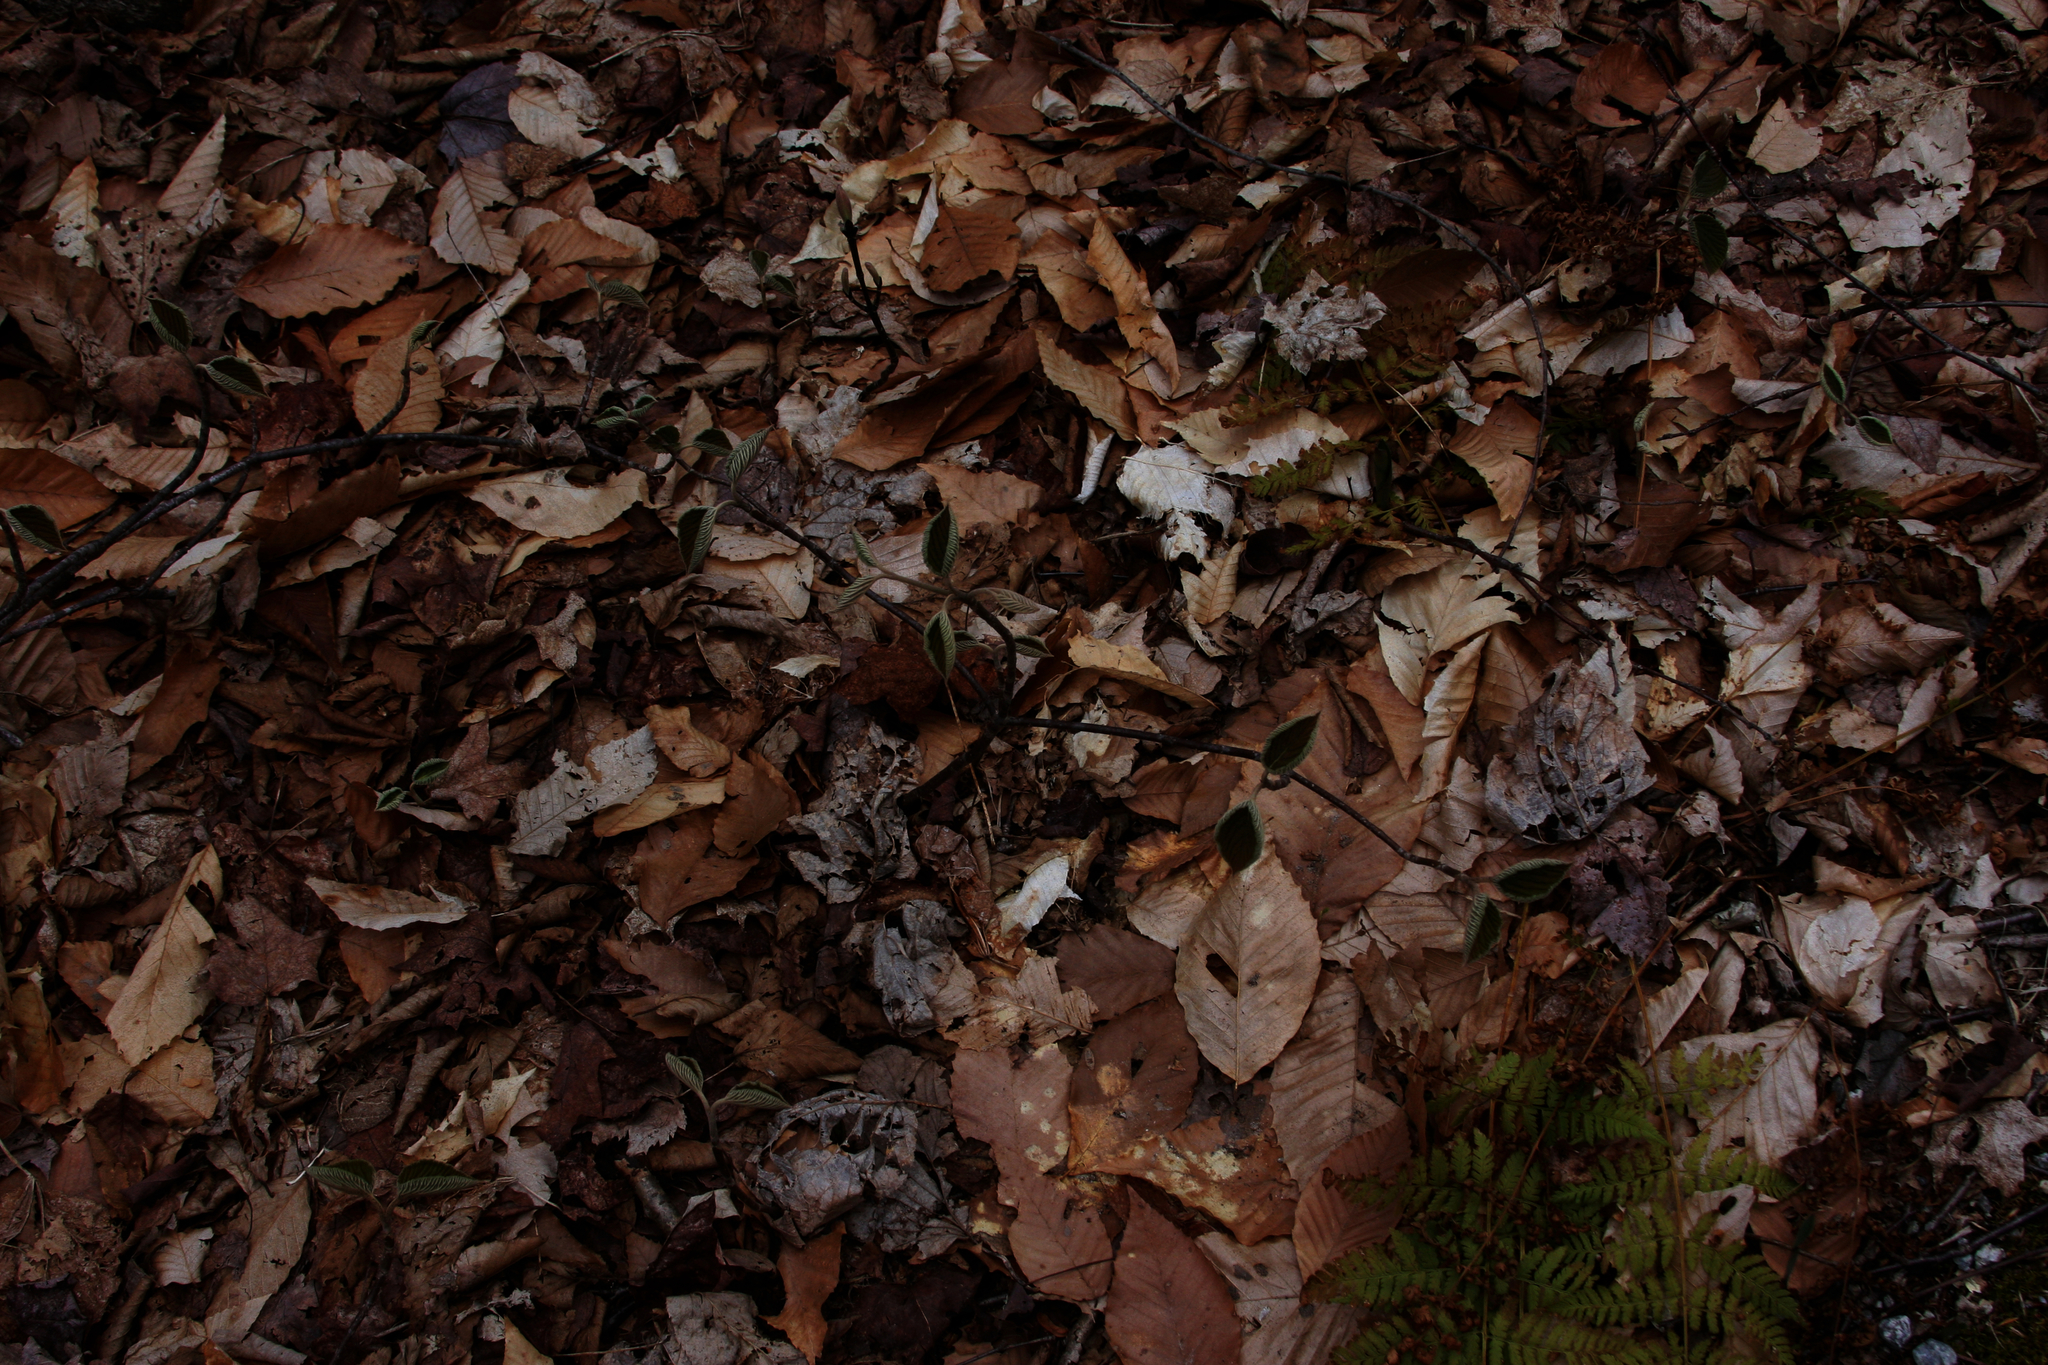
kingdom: Plantae
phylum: Tracheophyta
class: Magnoliopsida
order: Dipsacales
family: Viburnaceae
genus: Viburnum
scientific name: Viburnum lantanoides
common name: Hobblebush
